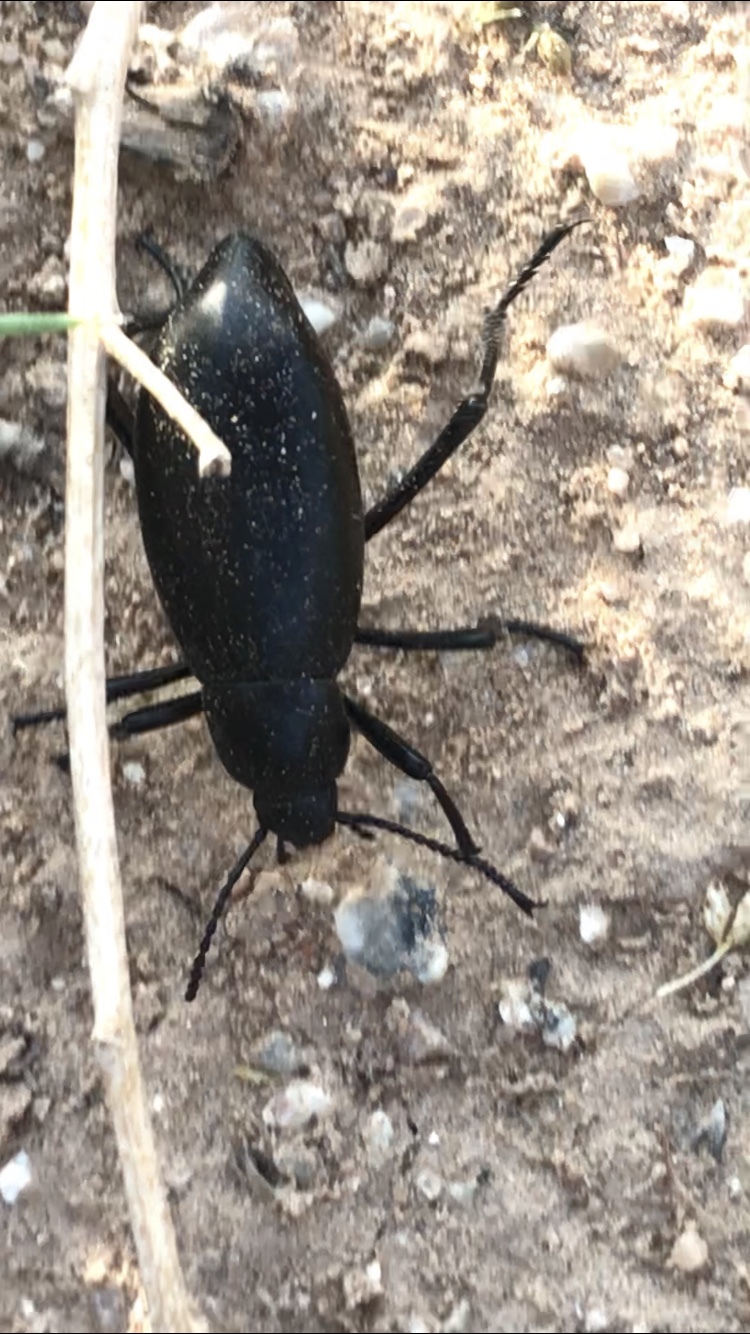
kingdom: Animalia
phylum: Arthropoda
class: Insecta
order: Coleoptera
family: Tenebrionidae
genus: Eleodes
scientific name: Eleodes longicollis
